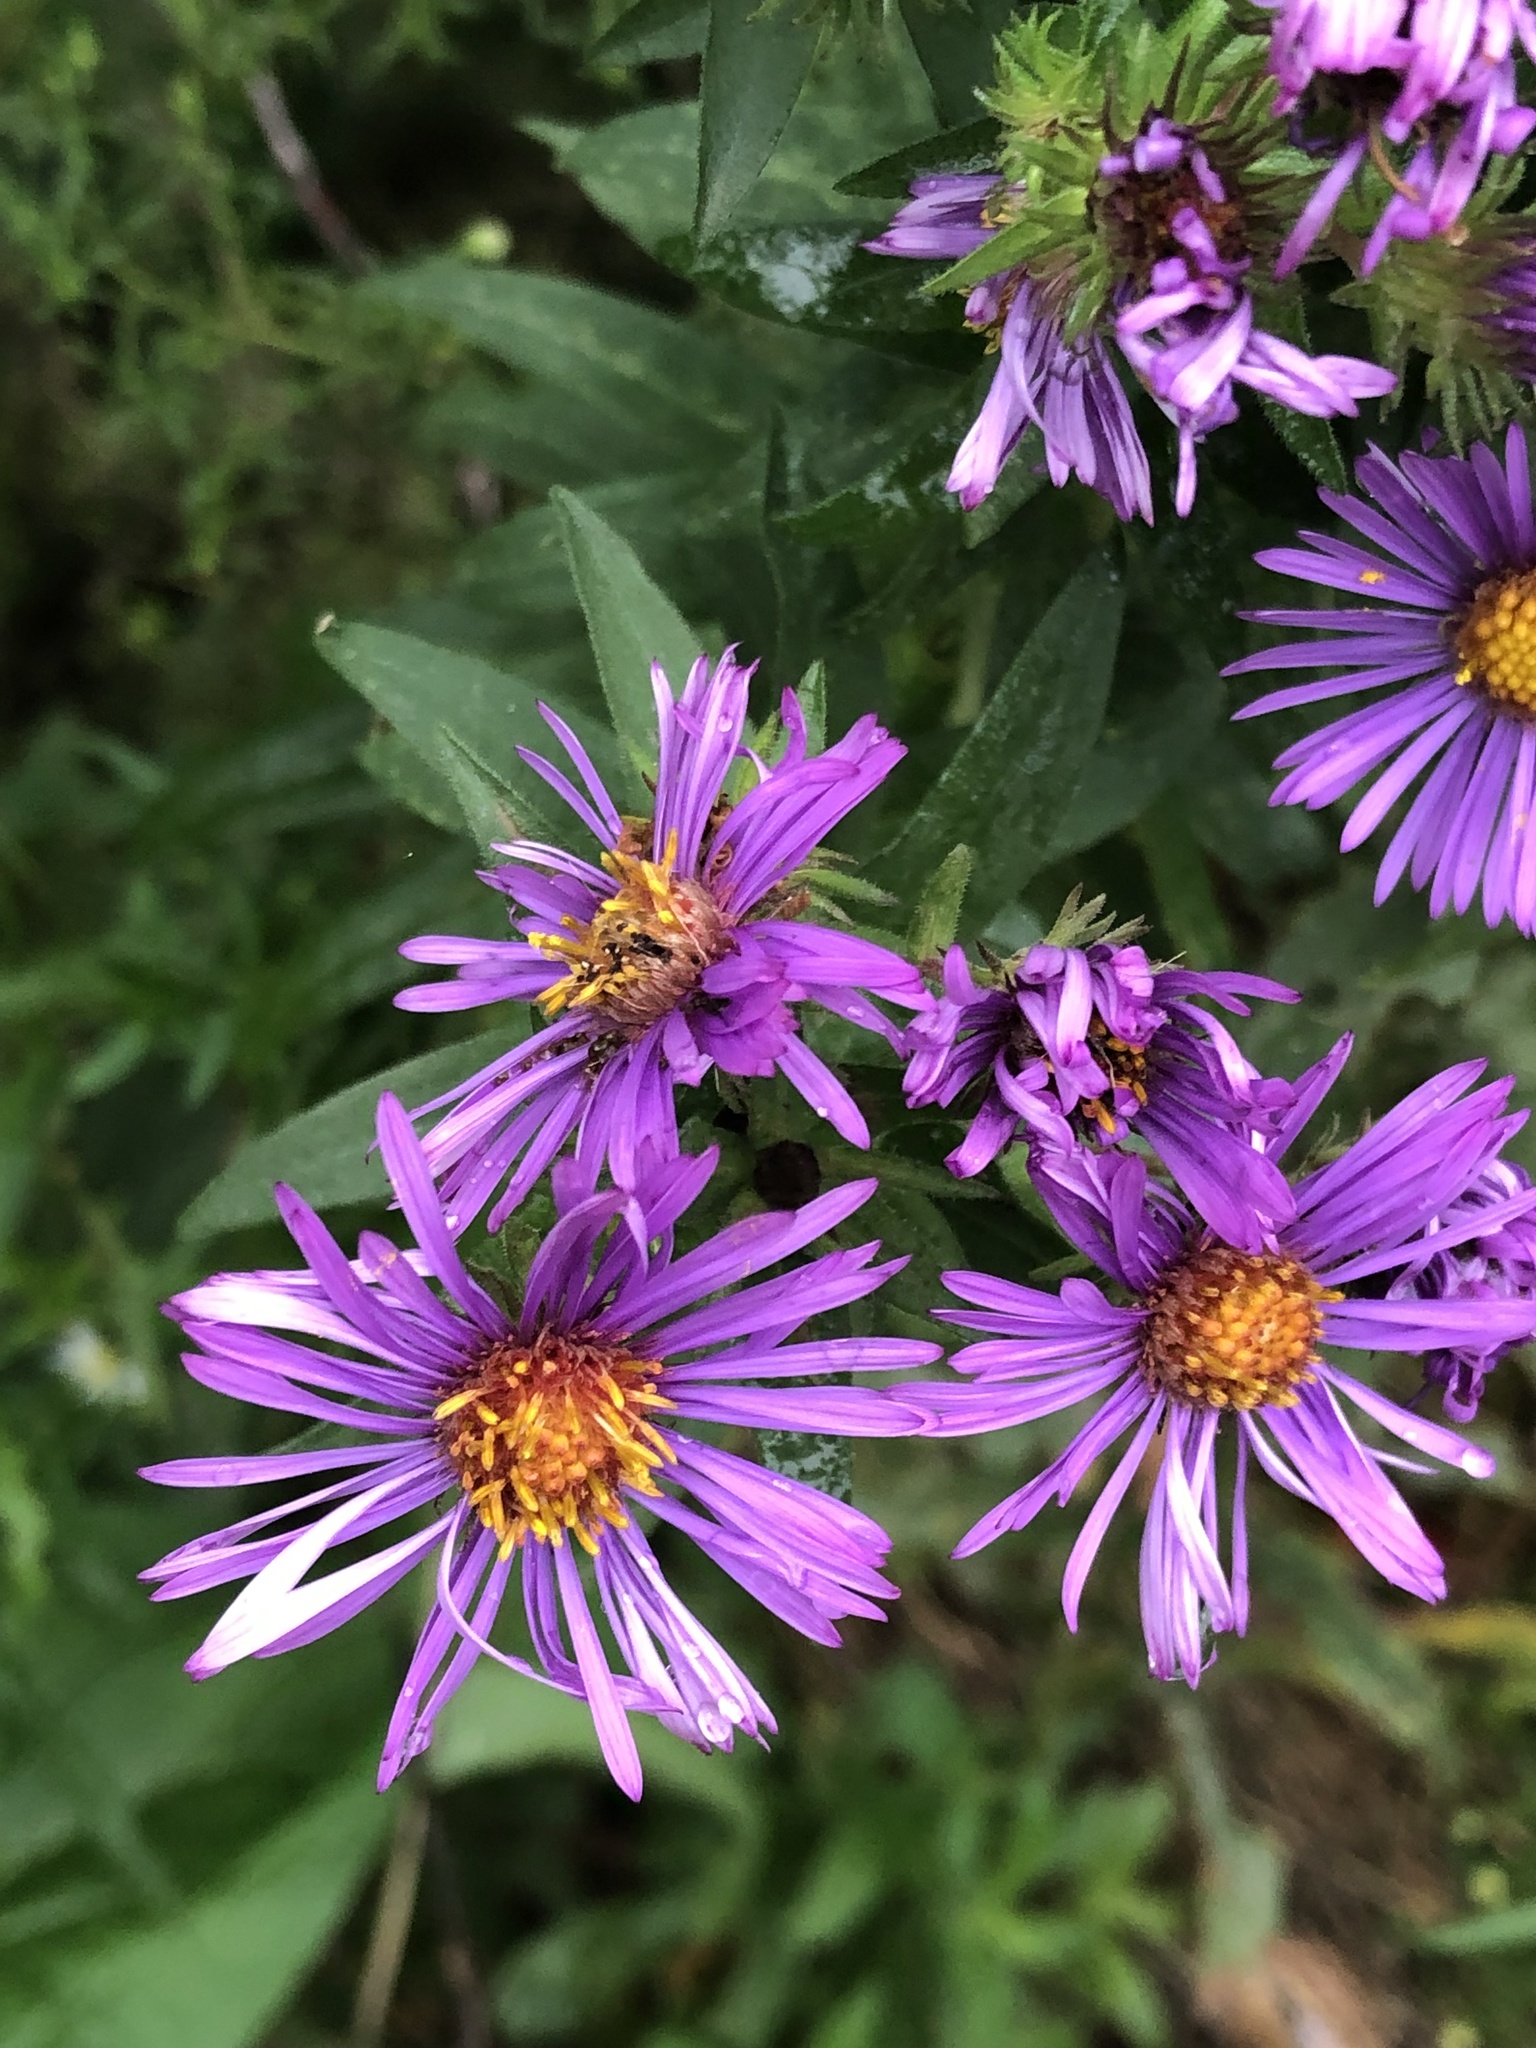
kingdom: Plantae
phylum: Tracheophyta
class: Magnoliopsida
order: Asterales
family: Asteraceae
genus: Symphyotrichum
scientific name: Symphyotrichum novae-angliae
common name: Michaelmas daisy
